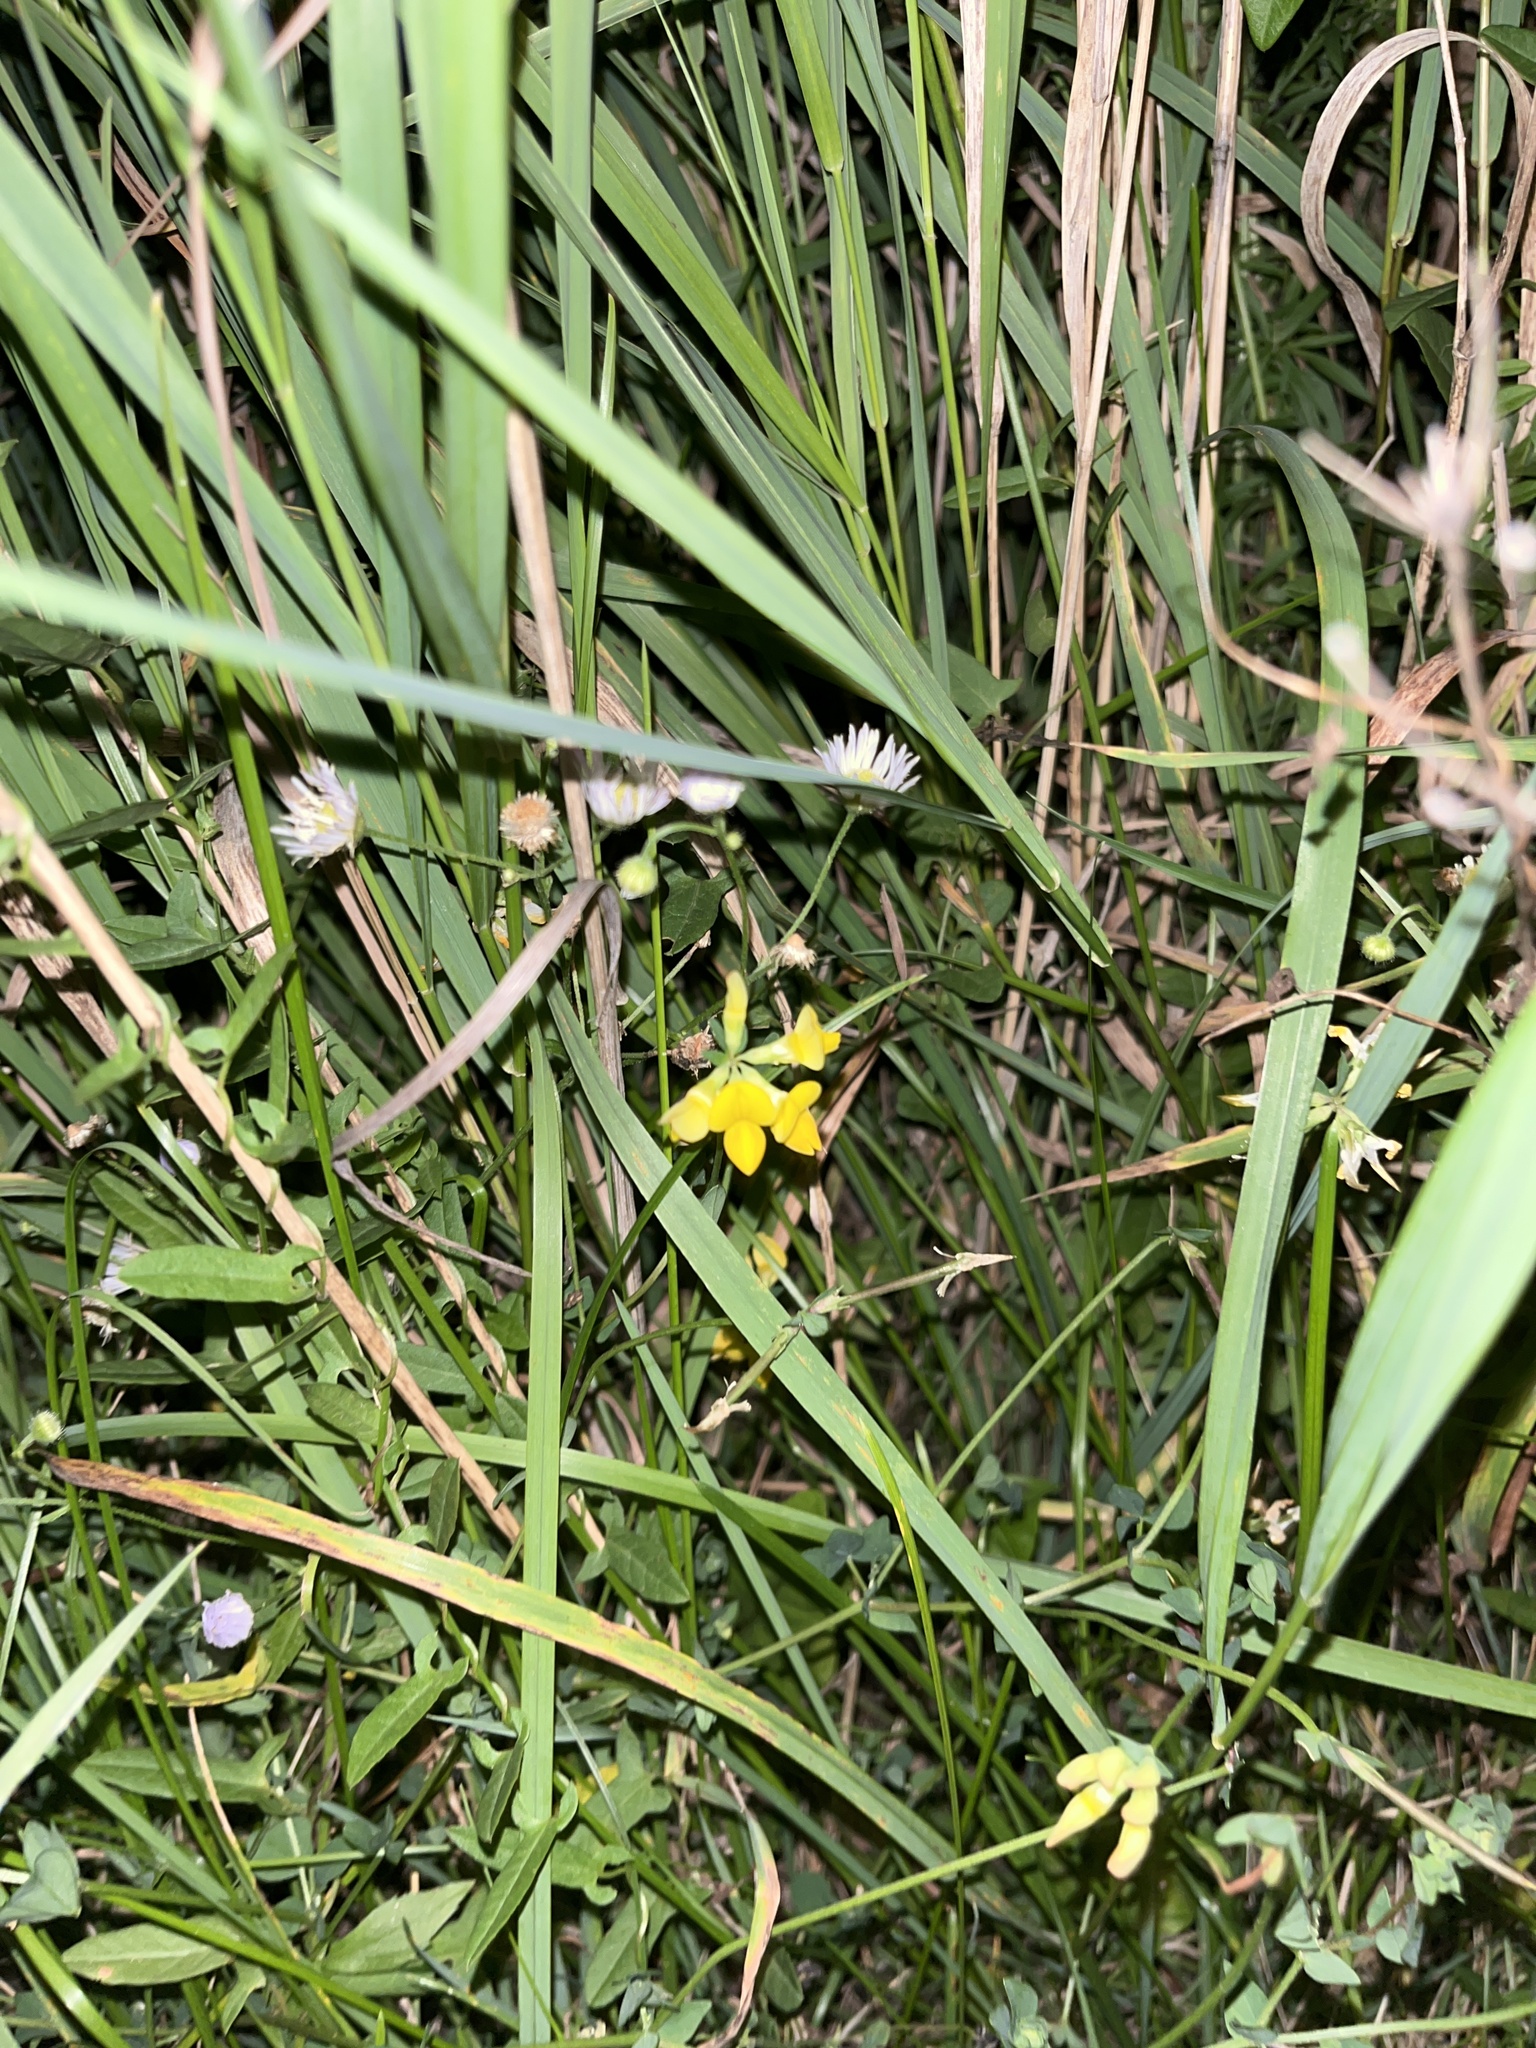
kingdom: Plantae
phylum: Tracheophyta
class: Magnoliopsida
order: Fabales
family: Fabaceae
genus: Lotus
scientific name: Lotus corniculatus
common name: Common bird's-foot-trefoil
